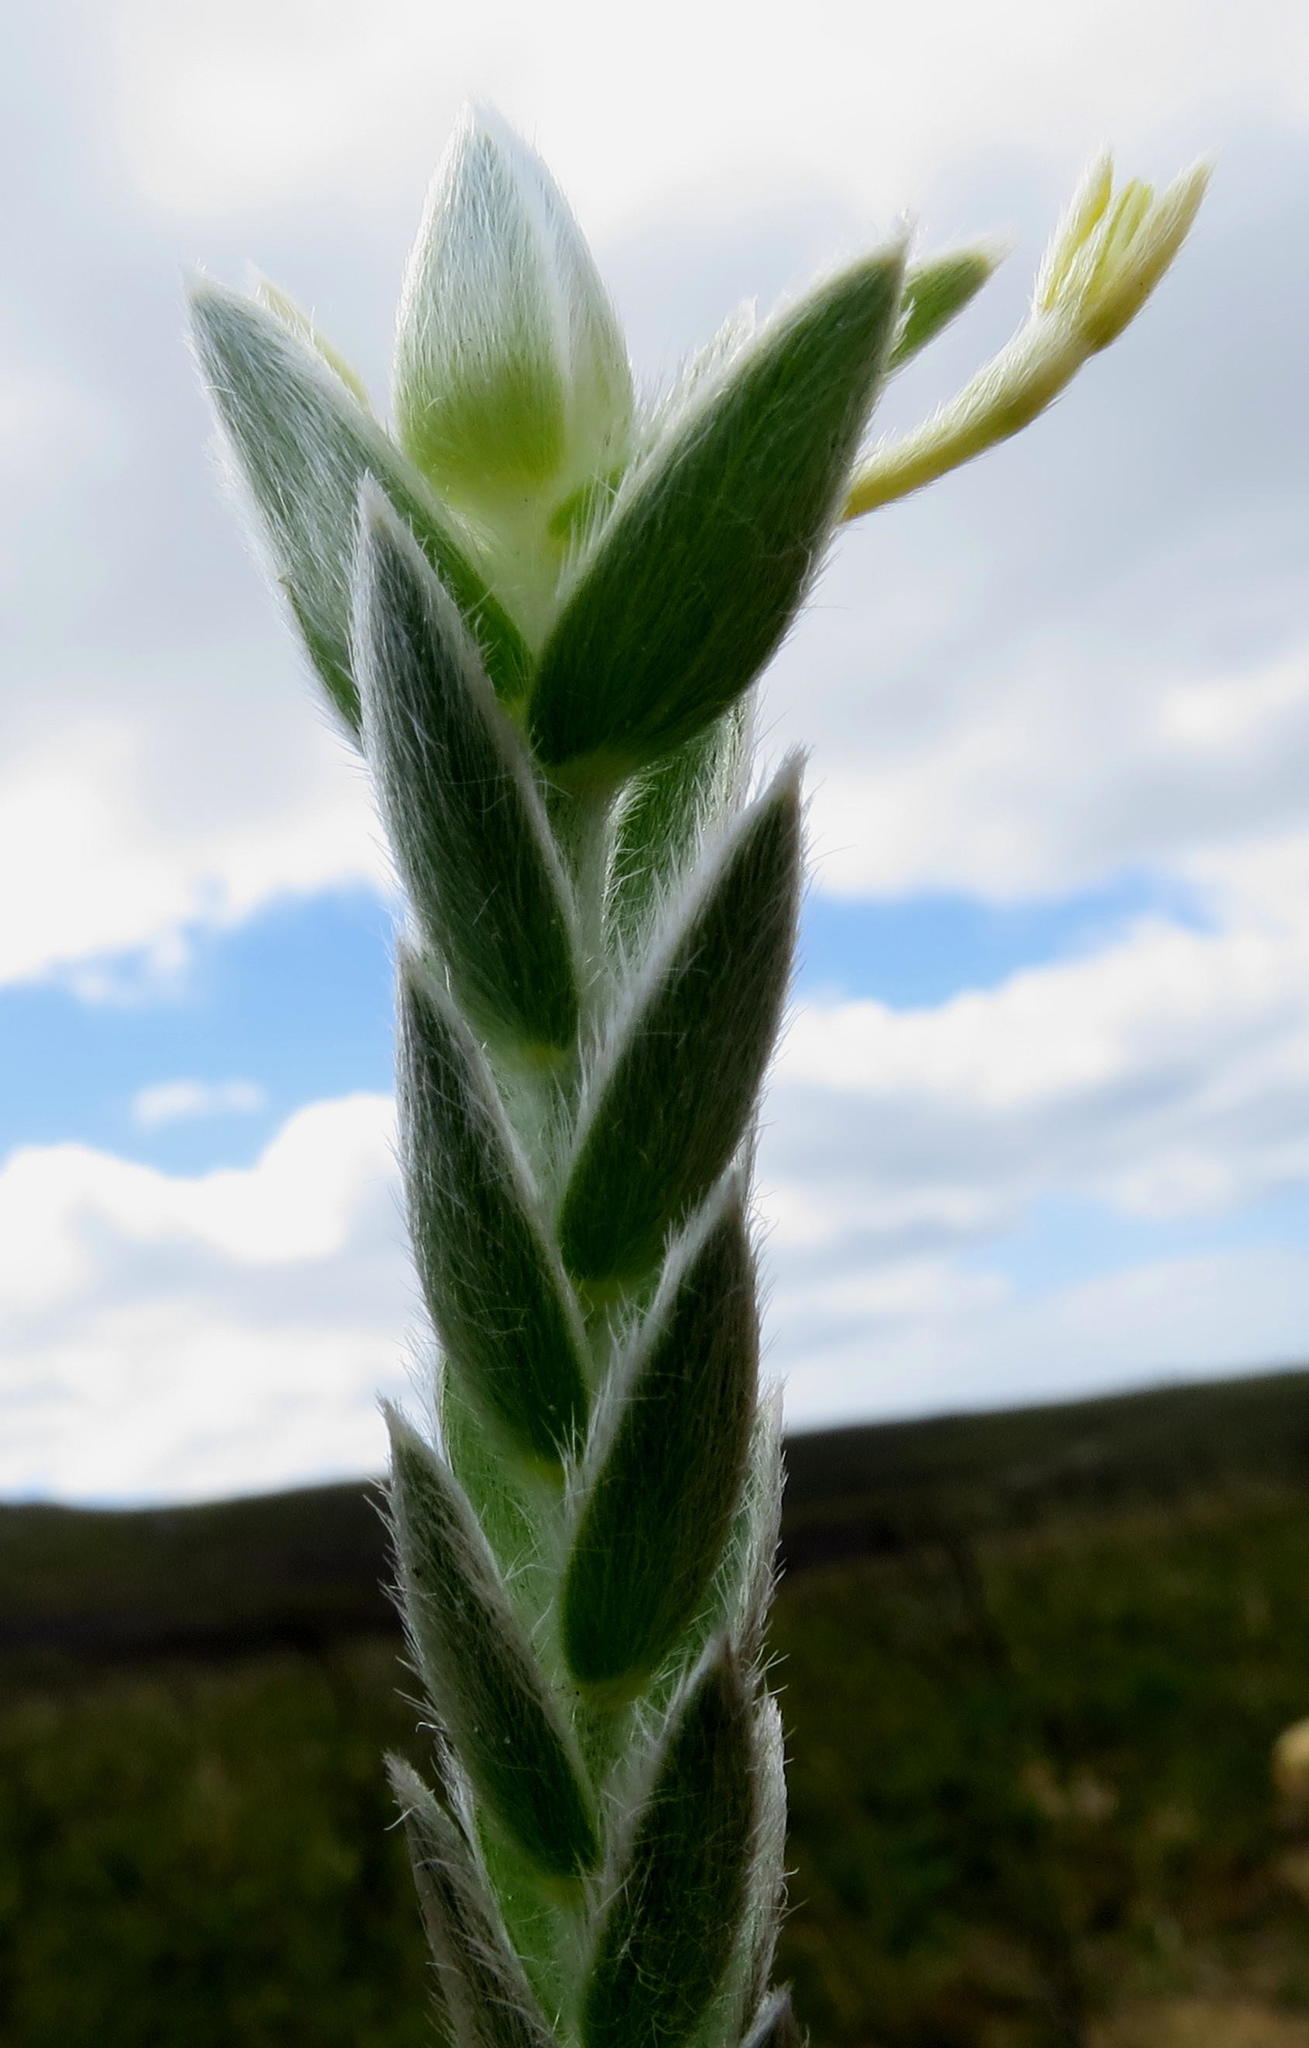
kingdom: Plantae
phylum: Tracheophyta
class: Magnoliopsida
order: Malvales
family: Thymelaeaceae
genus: Gnidia
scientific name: Gnidia chrysophylla
